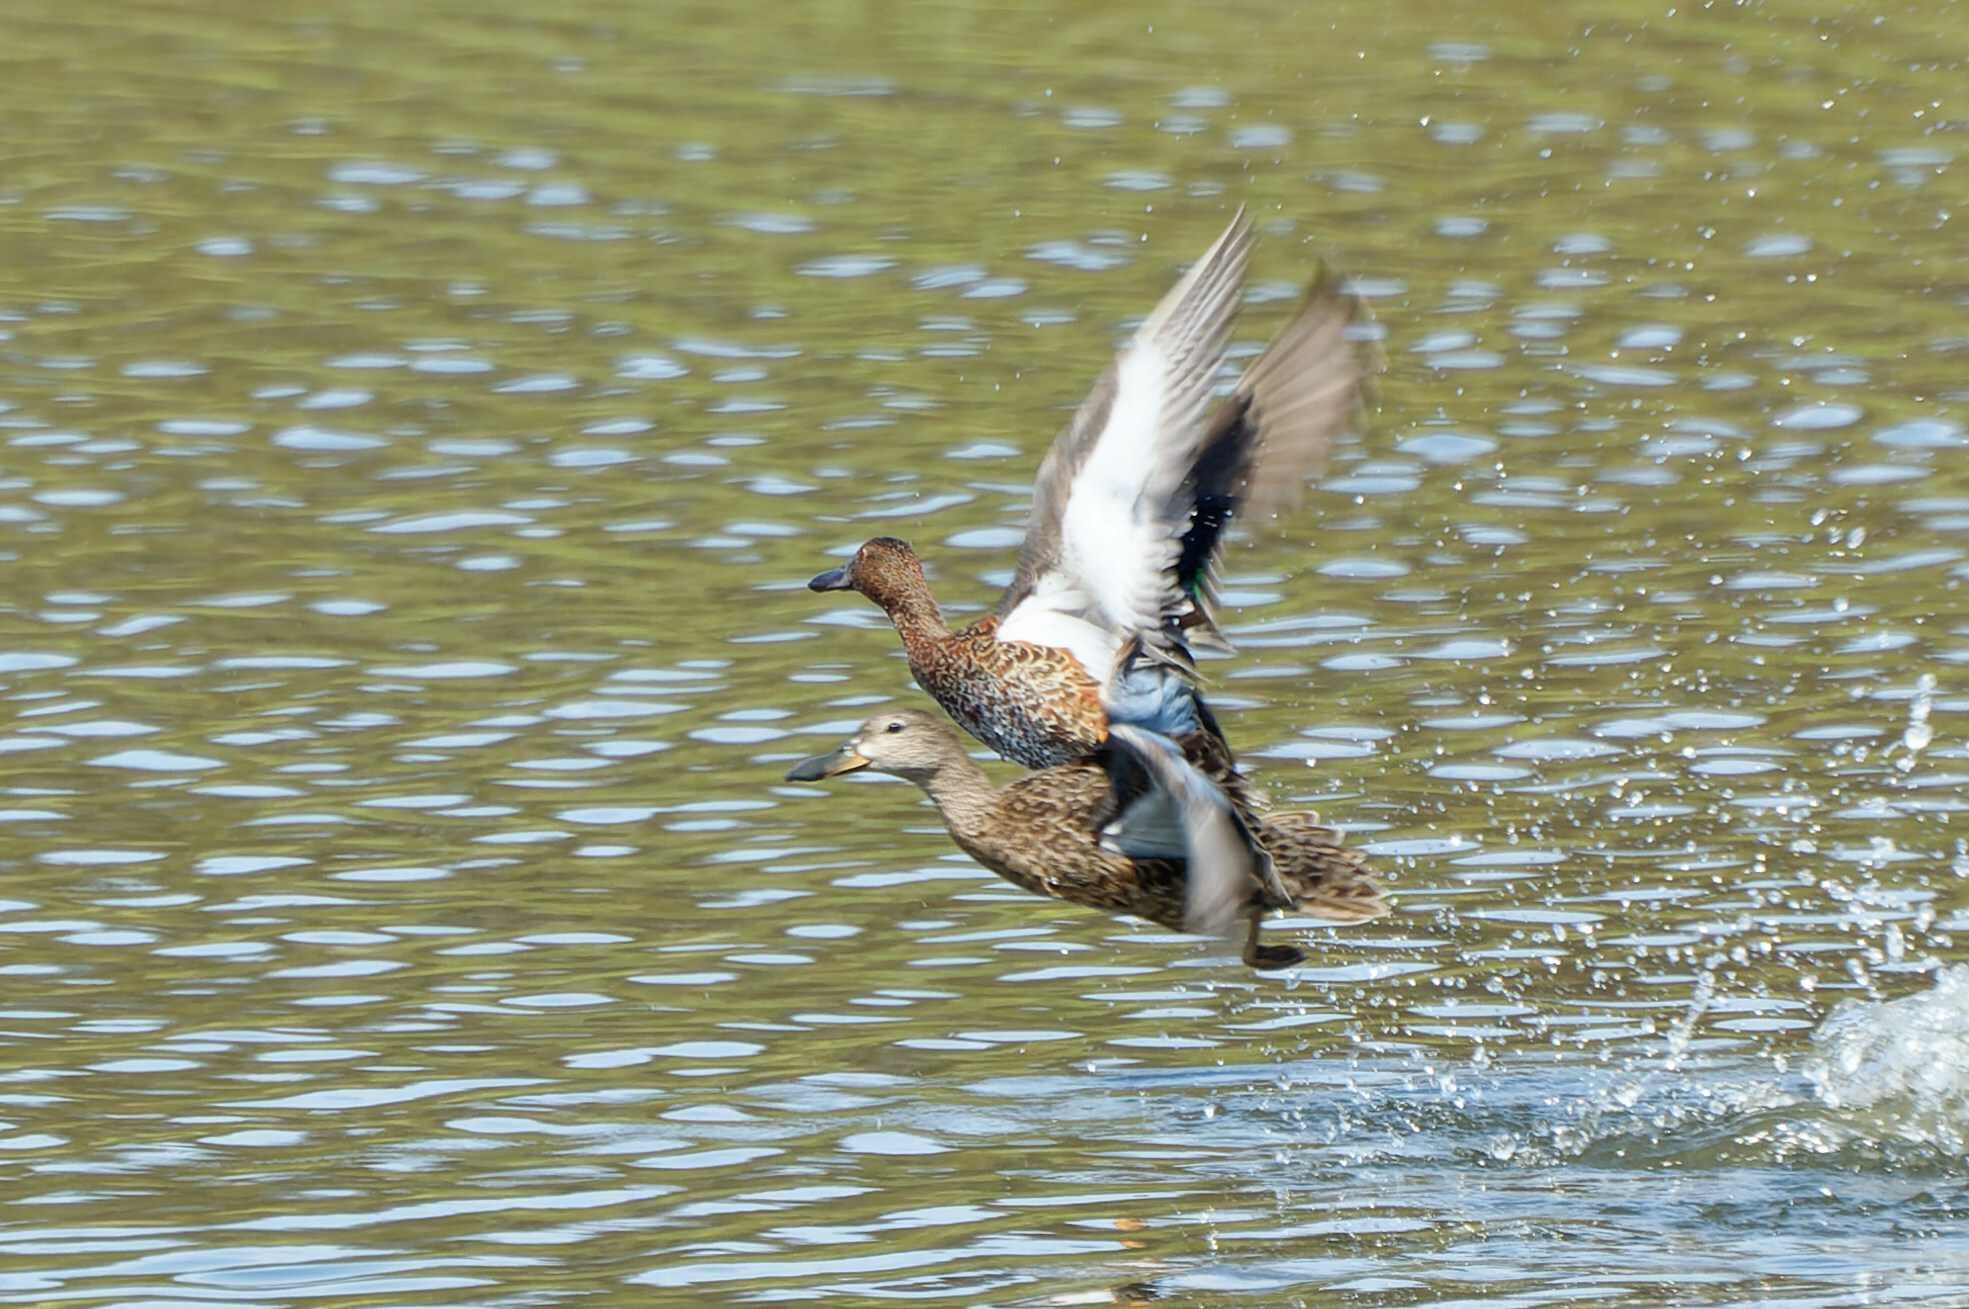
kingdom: Animalia
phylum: Chordata
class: Aves
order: Anseriformes
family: Anatidae
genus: Spatula
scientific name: Spatula cyanoptera
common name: Cinnamon teal
